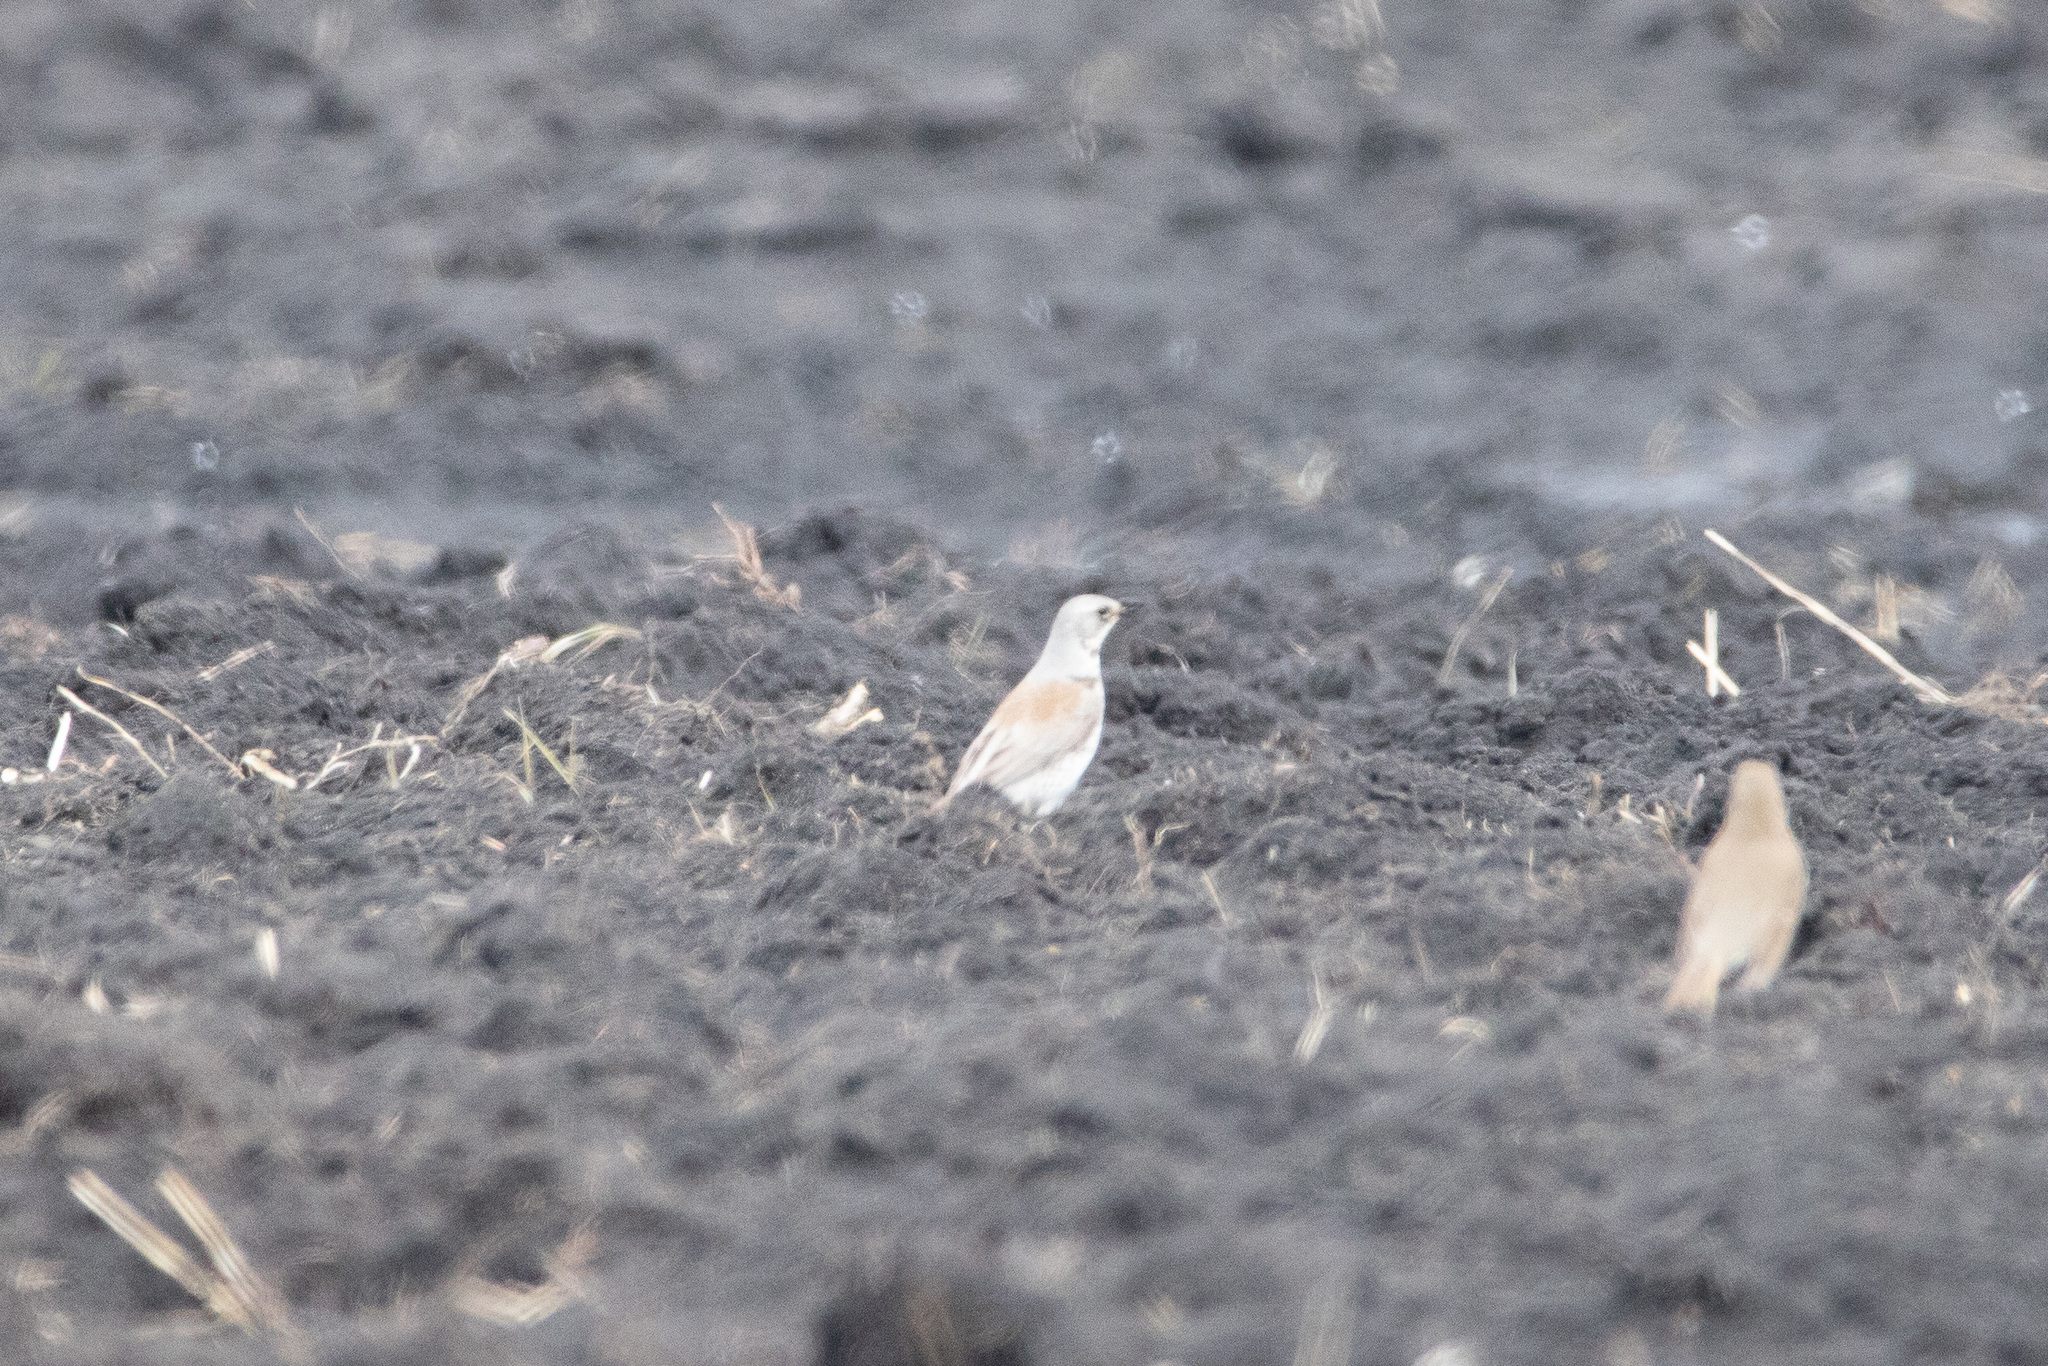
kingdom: Animalia
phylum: Chordata
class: Aves
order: Passeriformes
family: Turdidae
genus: Turdus
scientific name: Turdus pilaris
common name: Fieldfare
